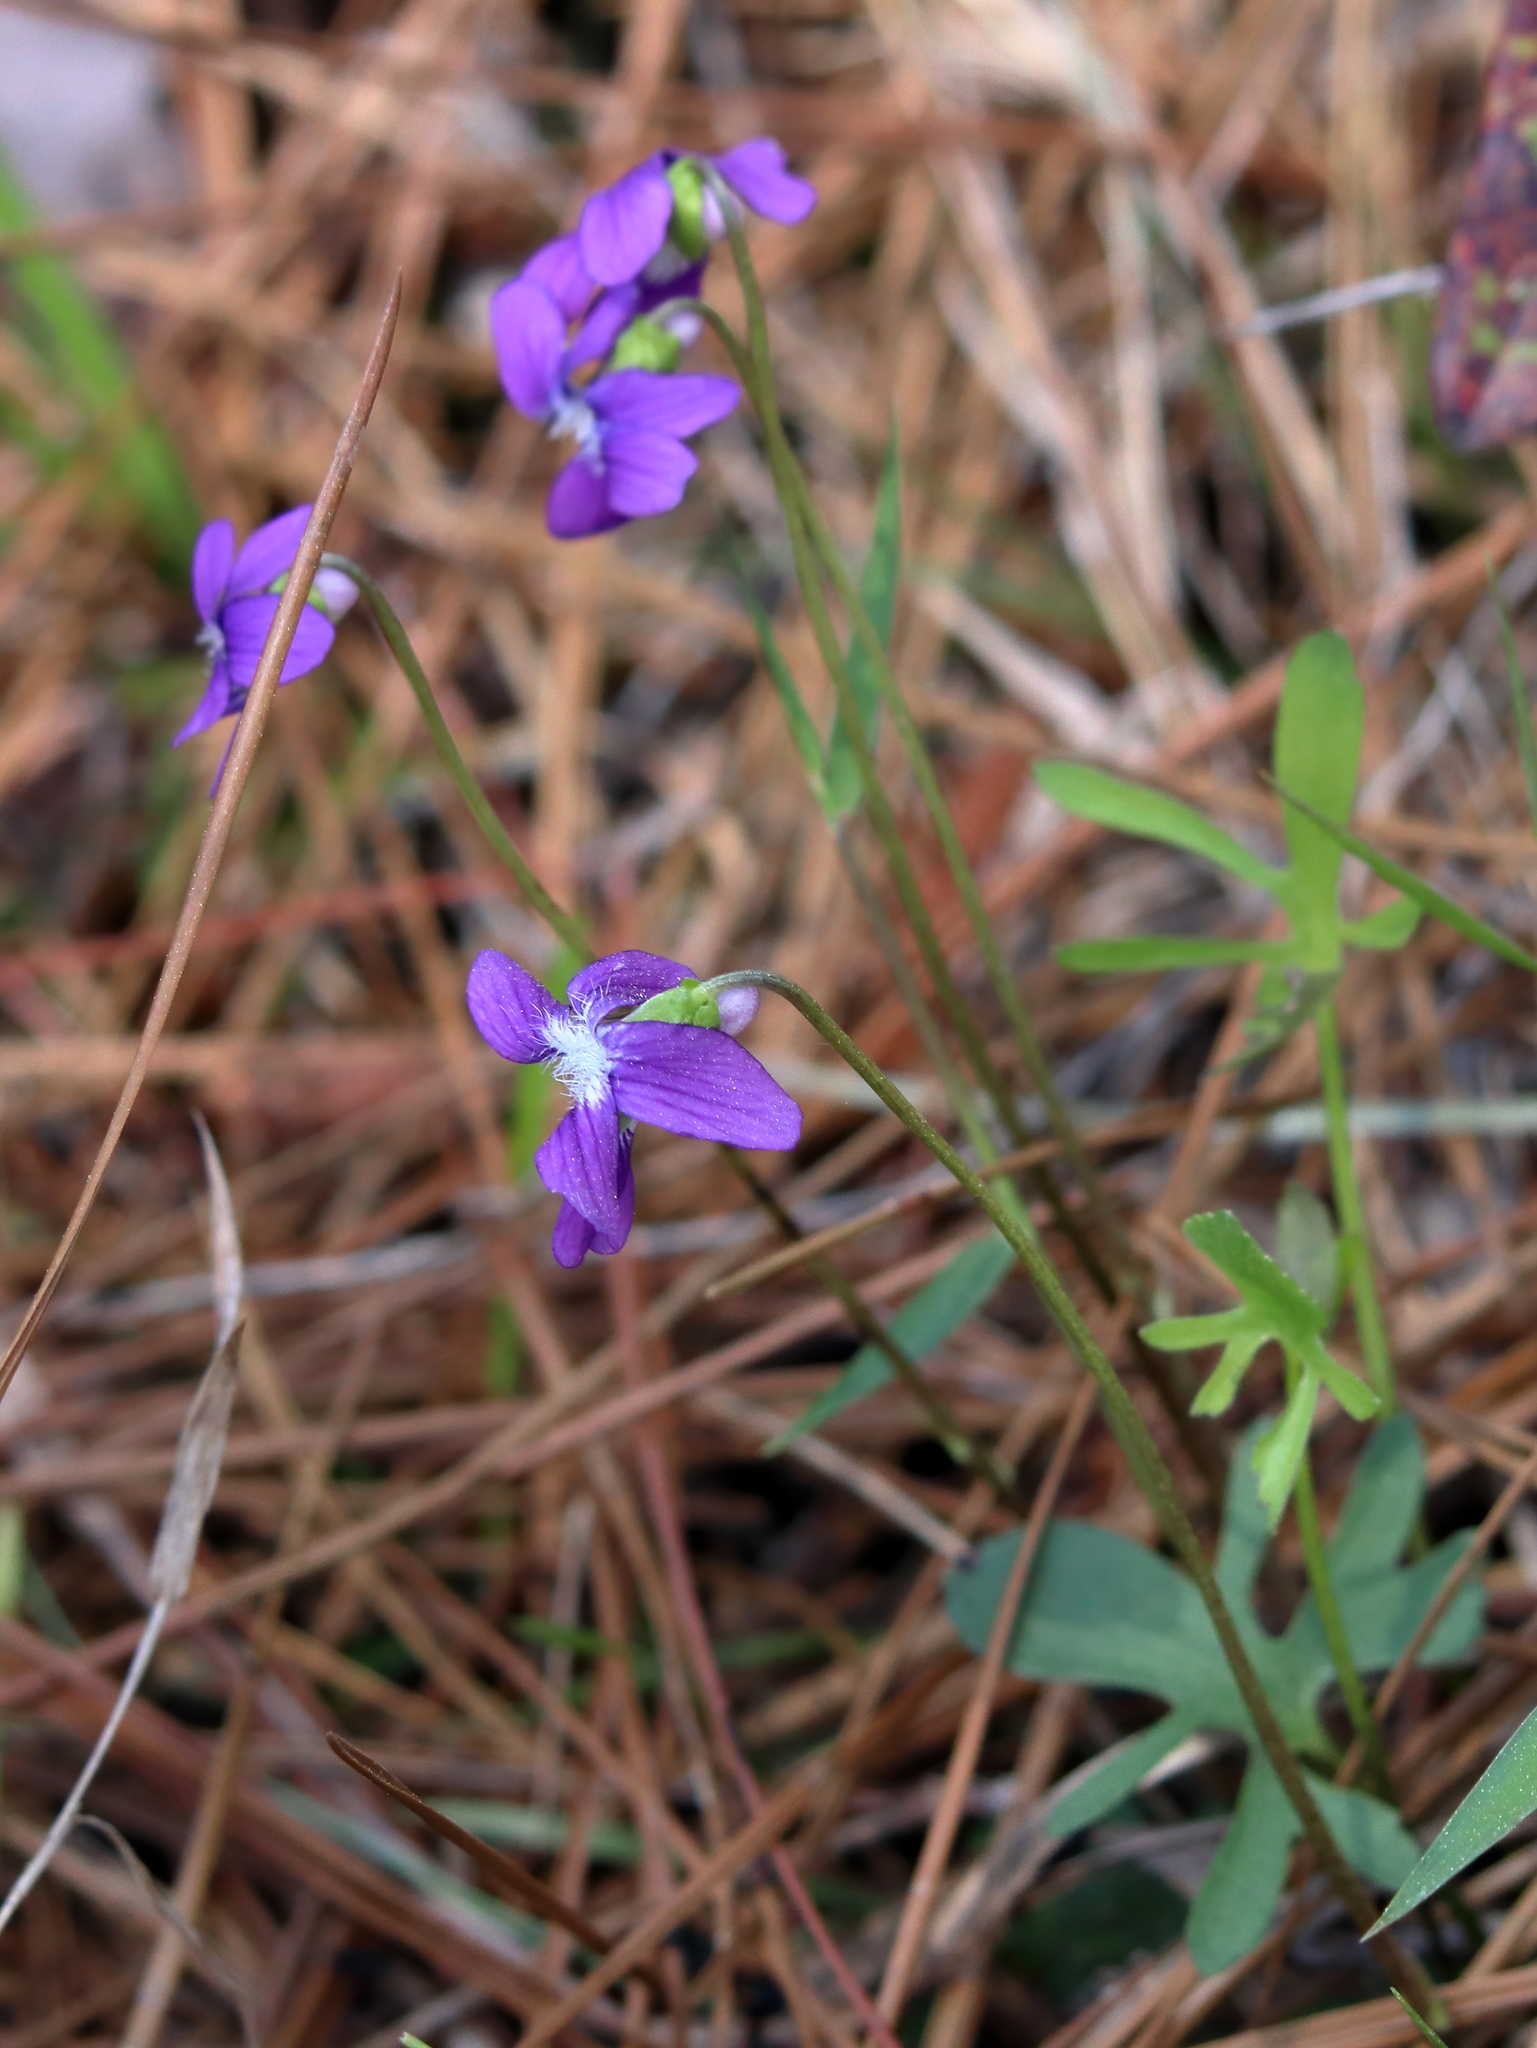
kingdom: Plantae
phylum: Tracheophyta
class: Magnoliopsida
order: Malpighiales
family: Violaceae
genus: Viola
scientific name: Viola septemloba
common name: Southern coast violet
